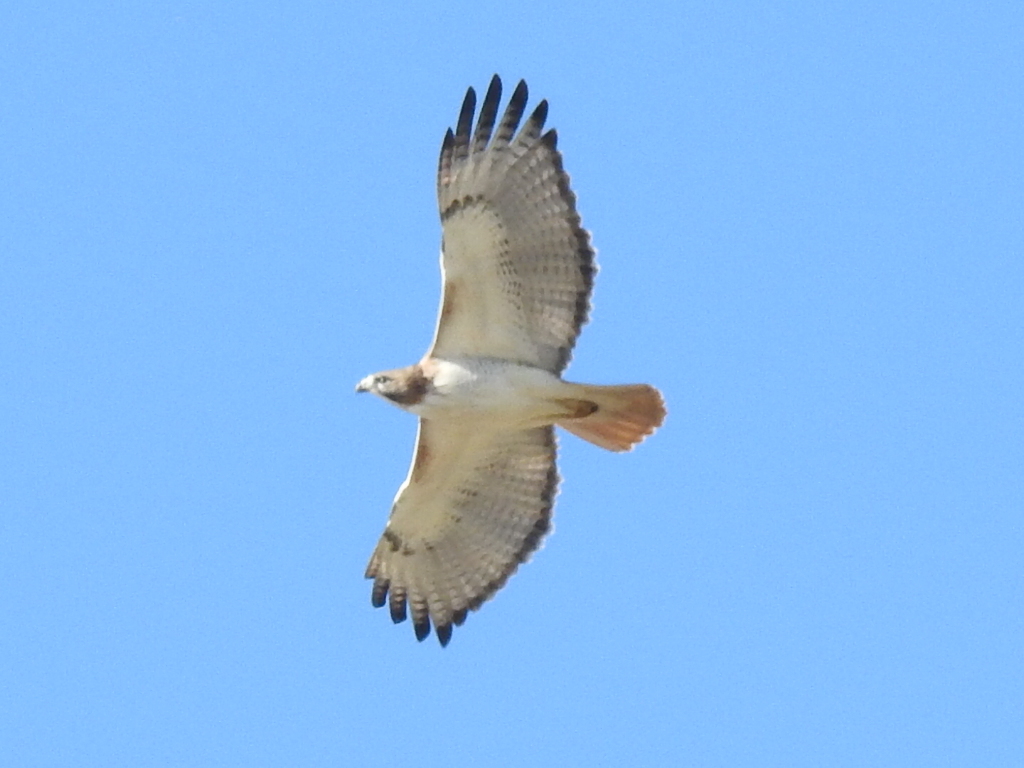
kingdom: Animalia
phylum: Chordata
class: Aves
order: Accipitriformes
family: Accipitridae
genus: Buteo
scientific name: Buteo jamaicensis
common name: Red-tailed hawk
